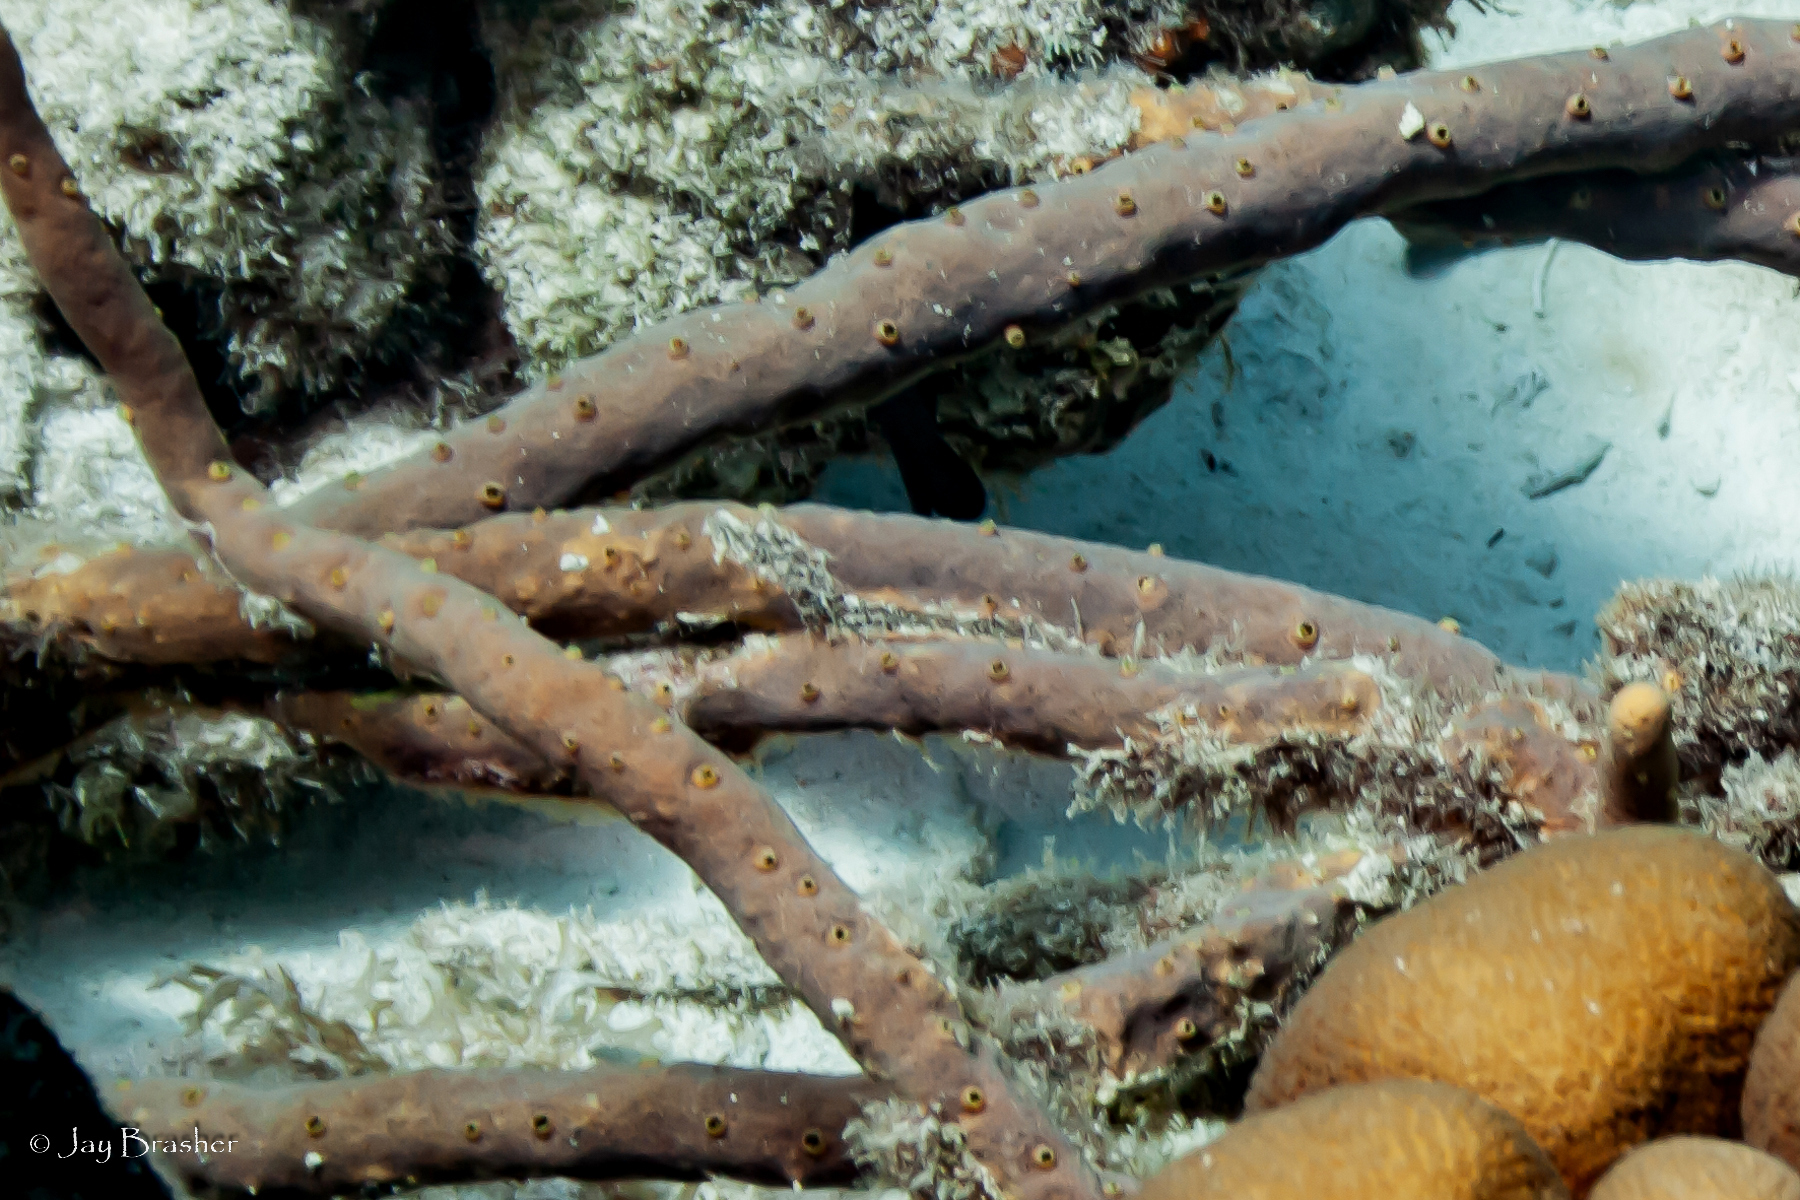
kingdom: Animalia
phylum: Porifera
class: Demospongiae
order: Verongiida
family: Aplysinidae
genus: Aplysina
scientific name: Aplysina cauliformis
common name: Branching candle sponge
